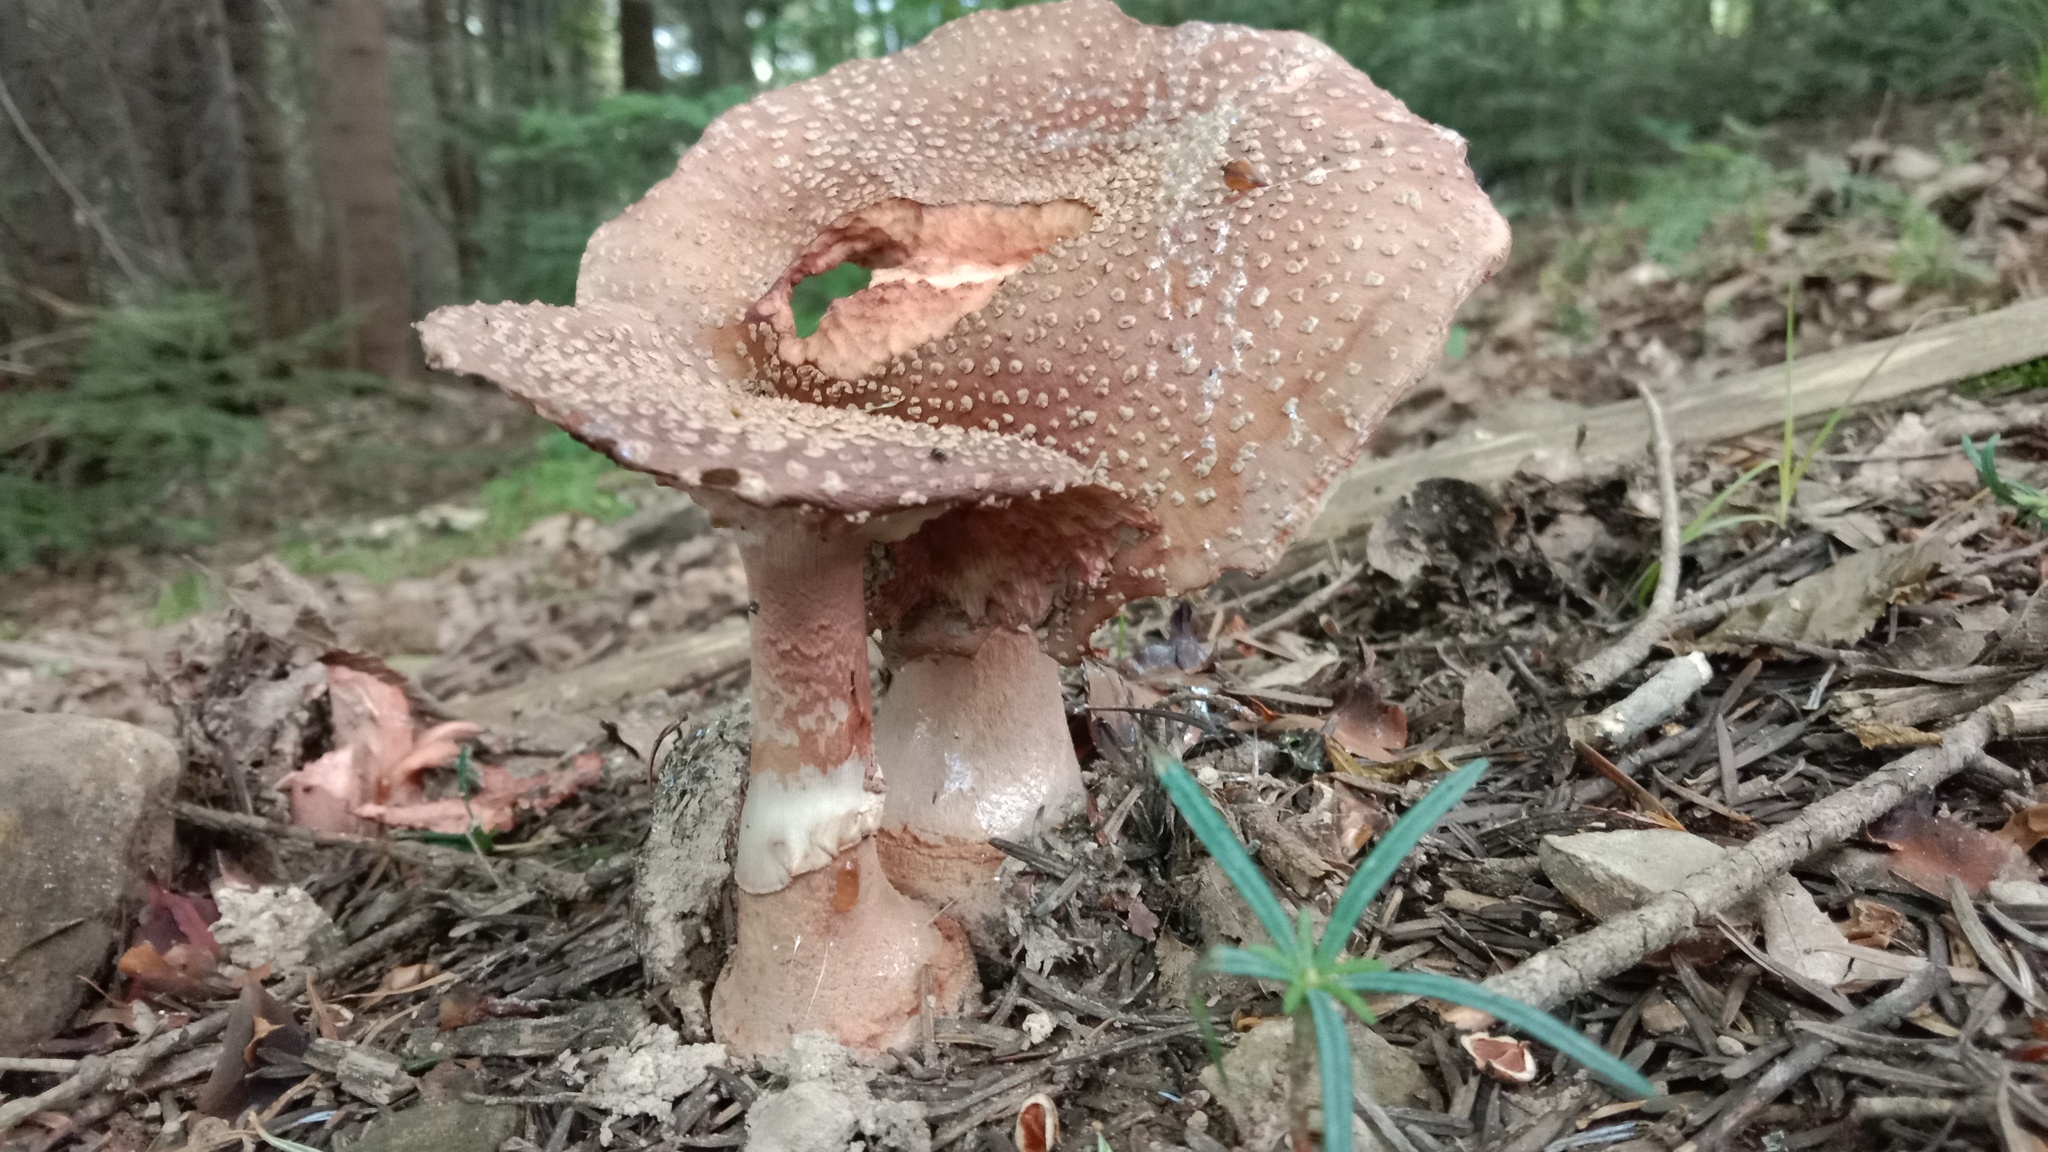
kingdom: Fungi
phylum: Basidiomycota
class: Agaricomycetes
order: Agaricales
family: Amanitaceae
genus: Amanita
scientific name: Amanita rubescens
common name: Blusher
